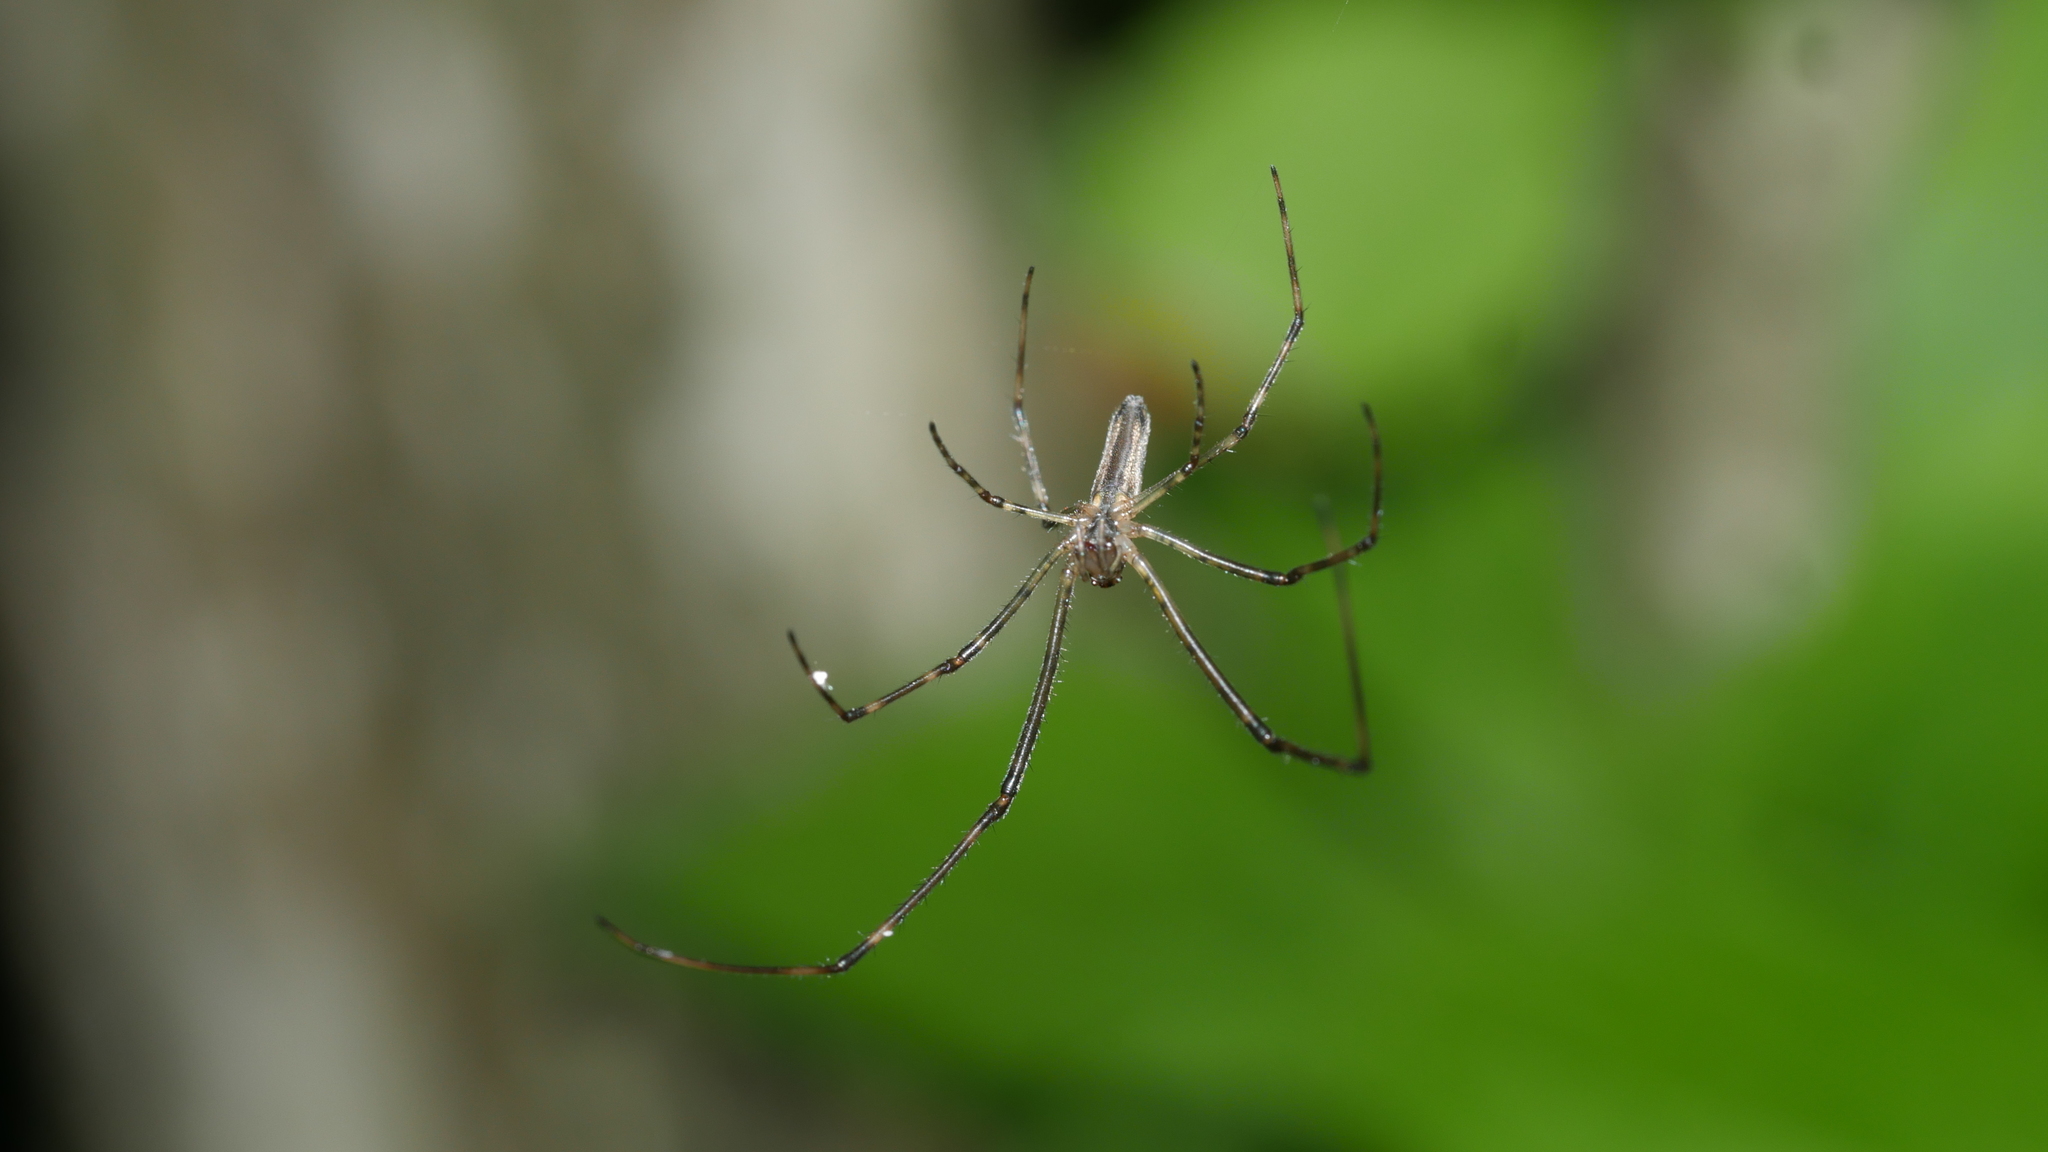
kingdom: Animalia
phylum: Arthropoda
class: Arachnida
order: Araneae
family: Tetragnathidae
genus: Tetragnatha
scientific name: Tetragnatha
